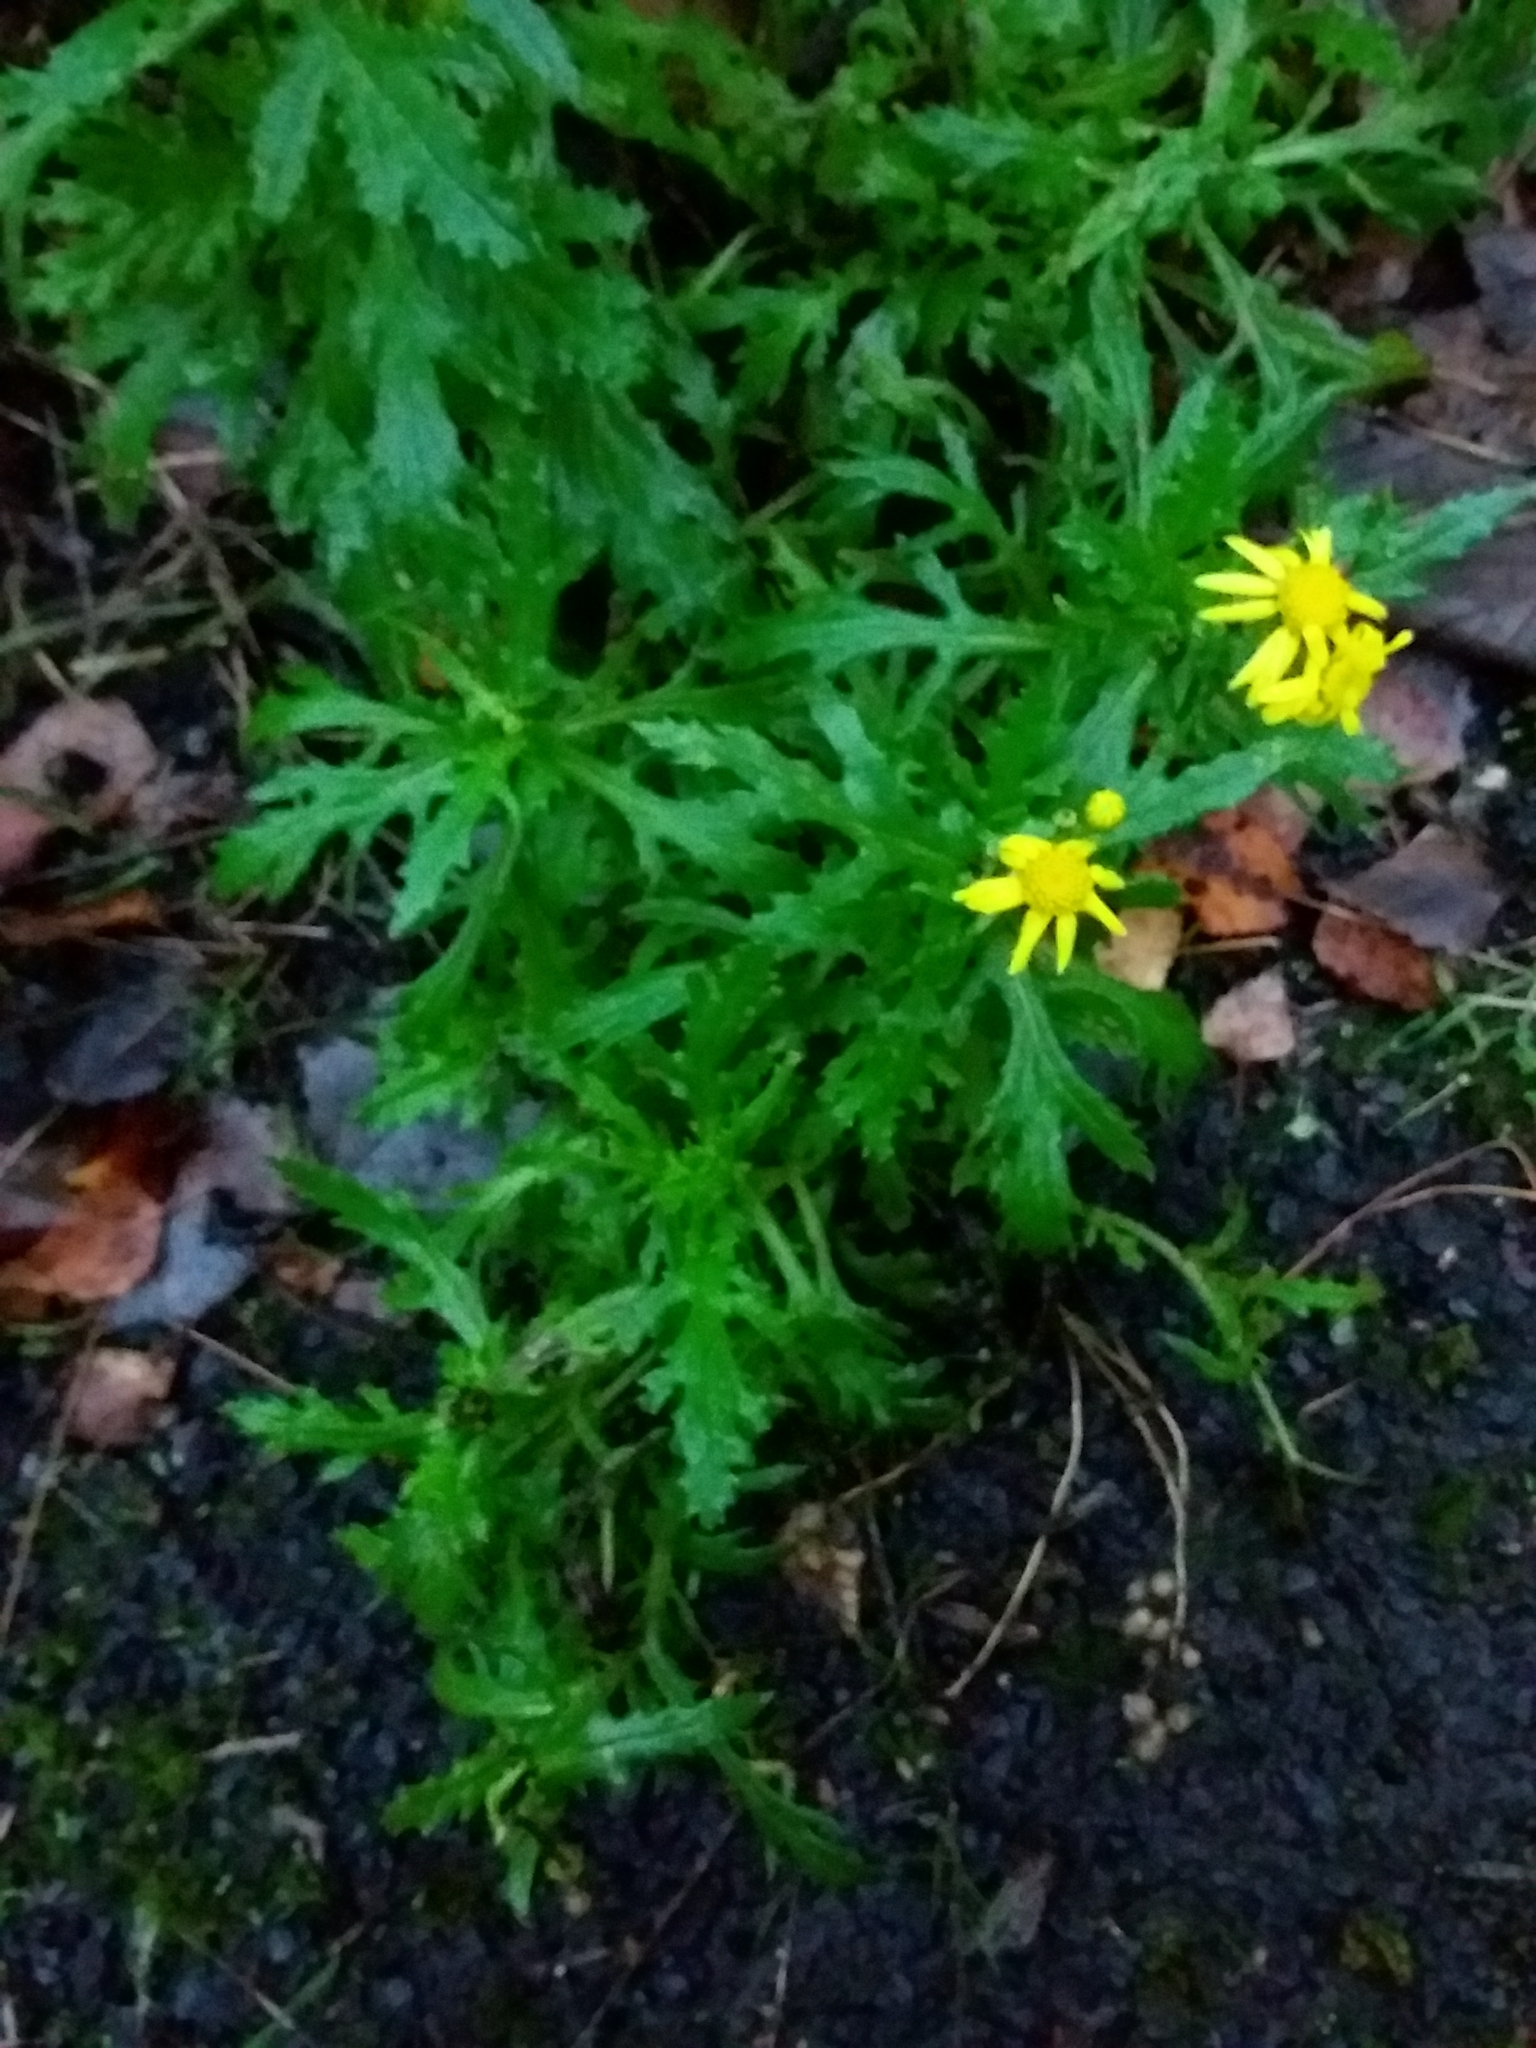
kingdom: Plantae
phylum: Tracheophyta
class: Magnoliopsida
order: Asterales
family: Asteraceae
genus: Senecio
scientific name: Senecio squalidus
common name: Oxford ragwort
